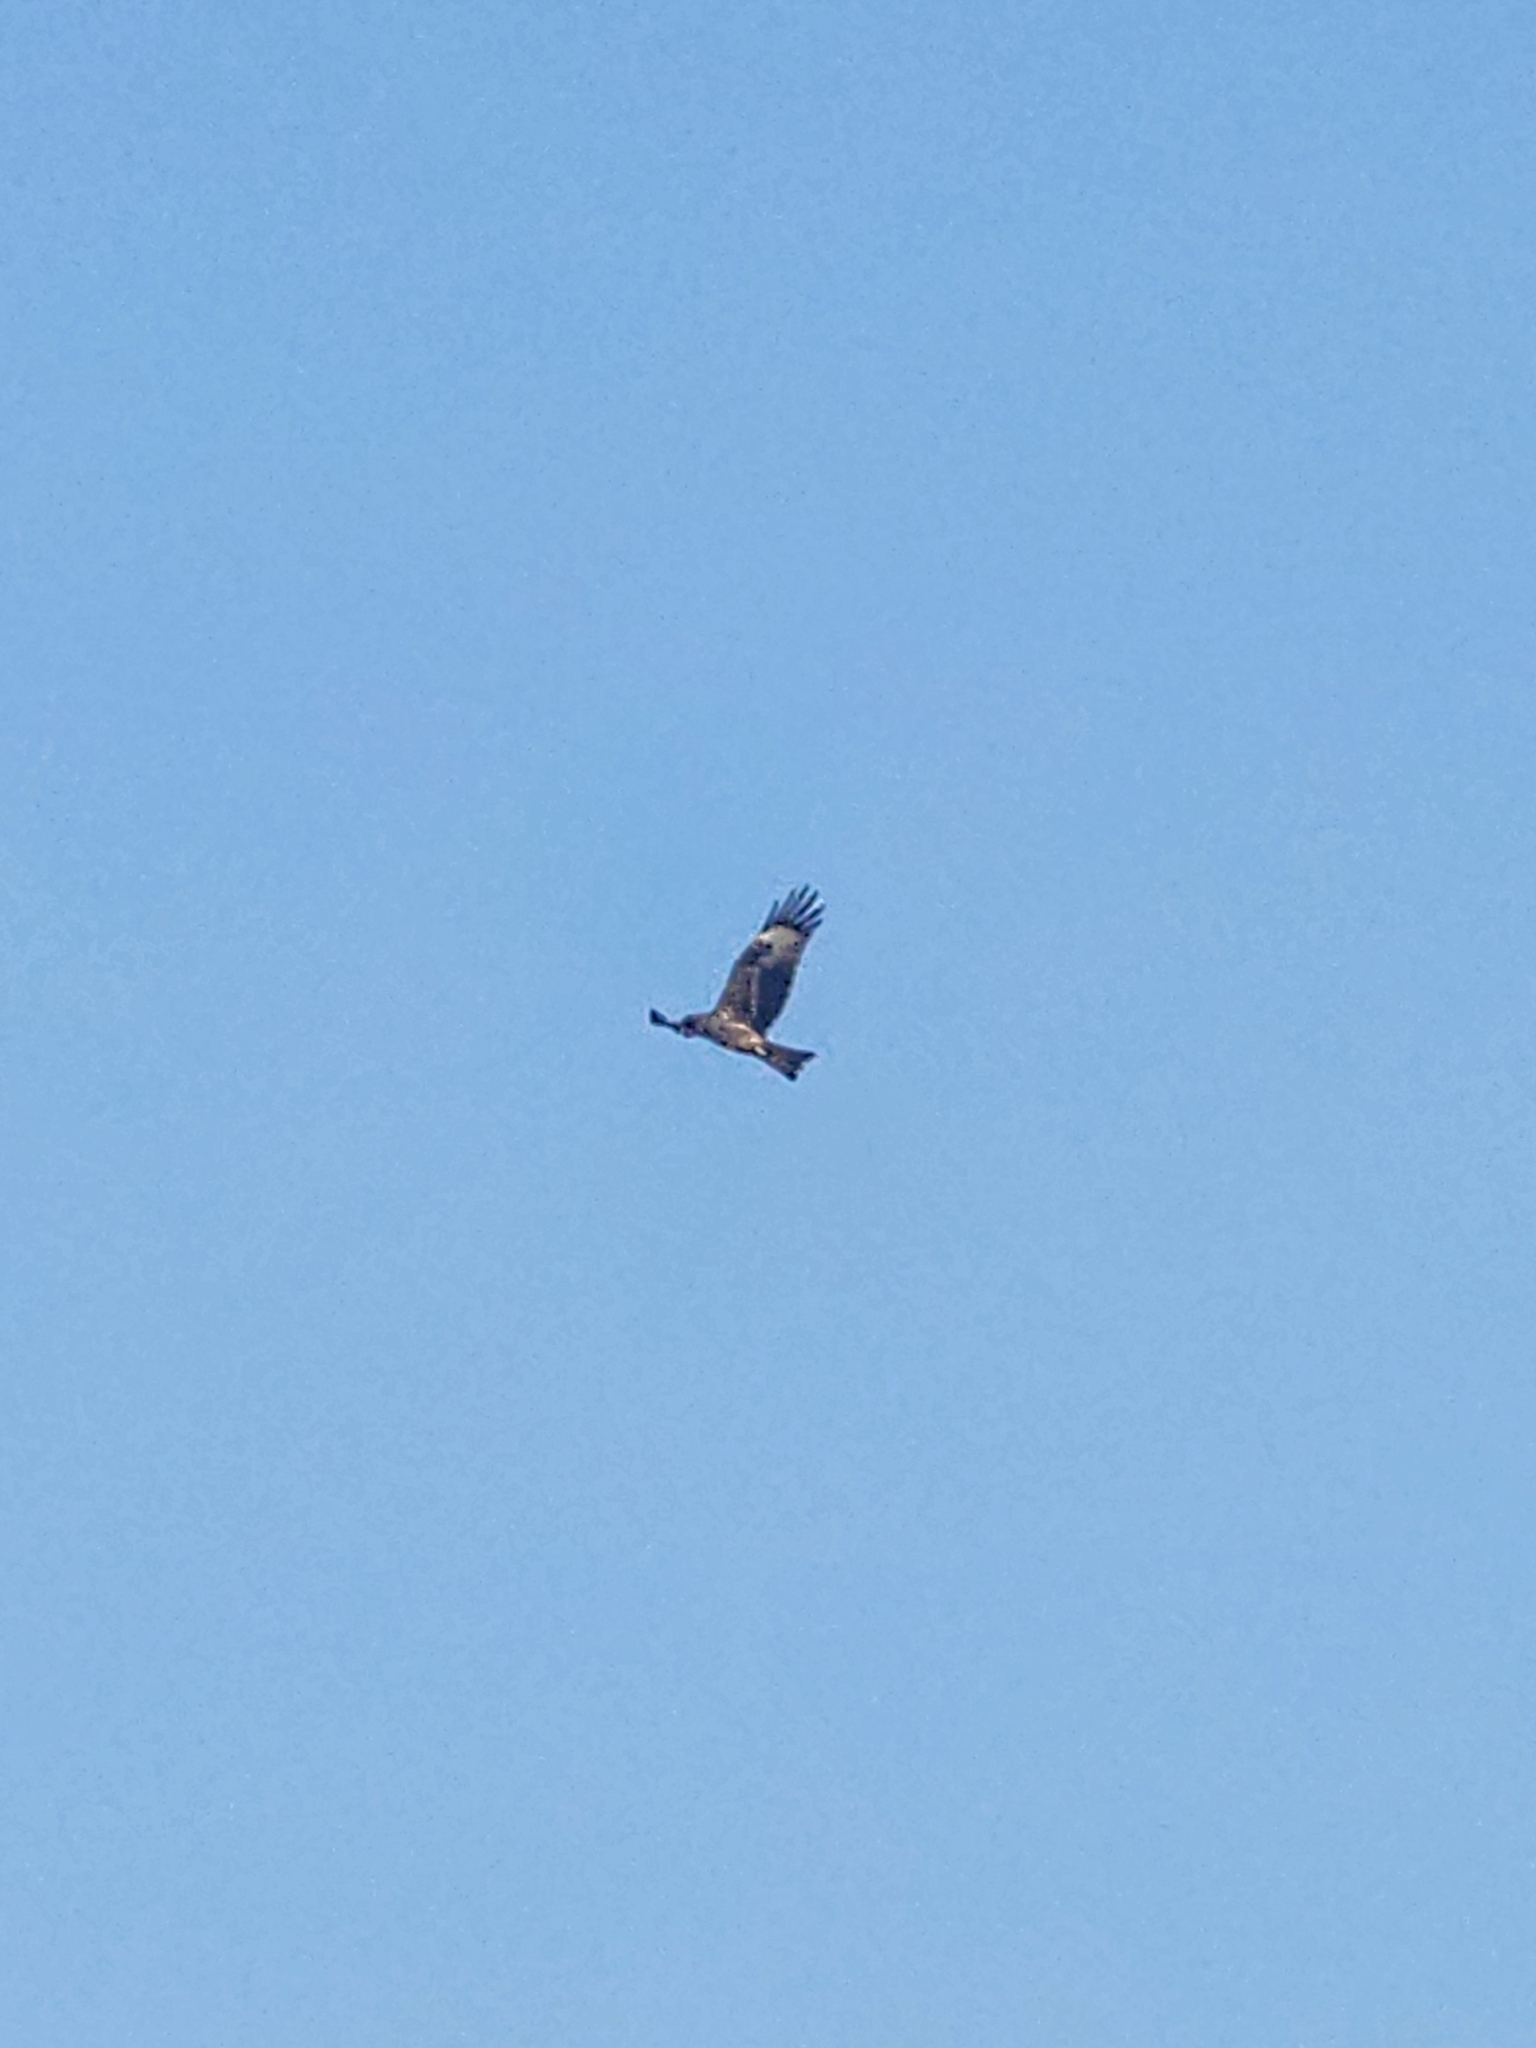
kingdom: Animalia
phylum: Chordata
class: Aves
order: Accipitriformes
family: Accipitridae
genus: Milvus
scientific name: Milvus migrans
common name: Black kite
